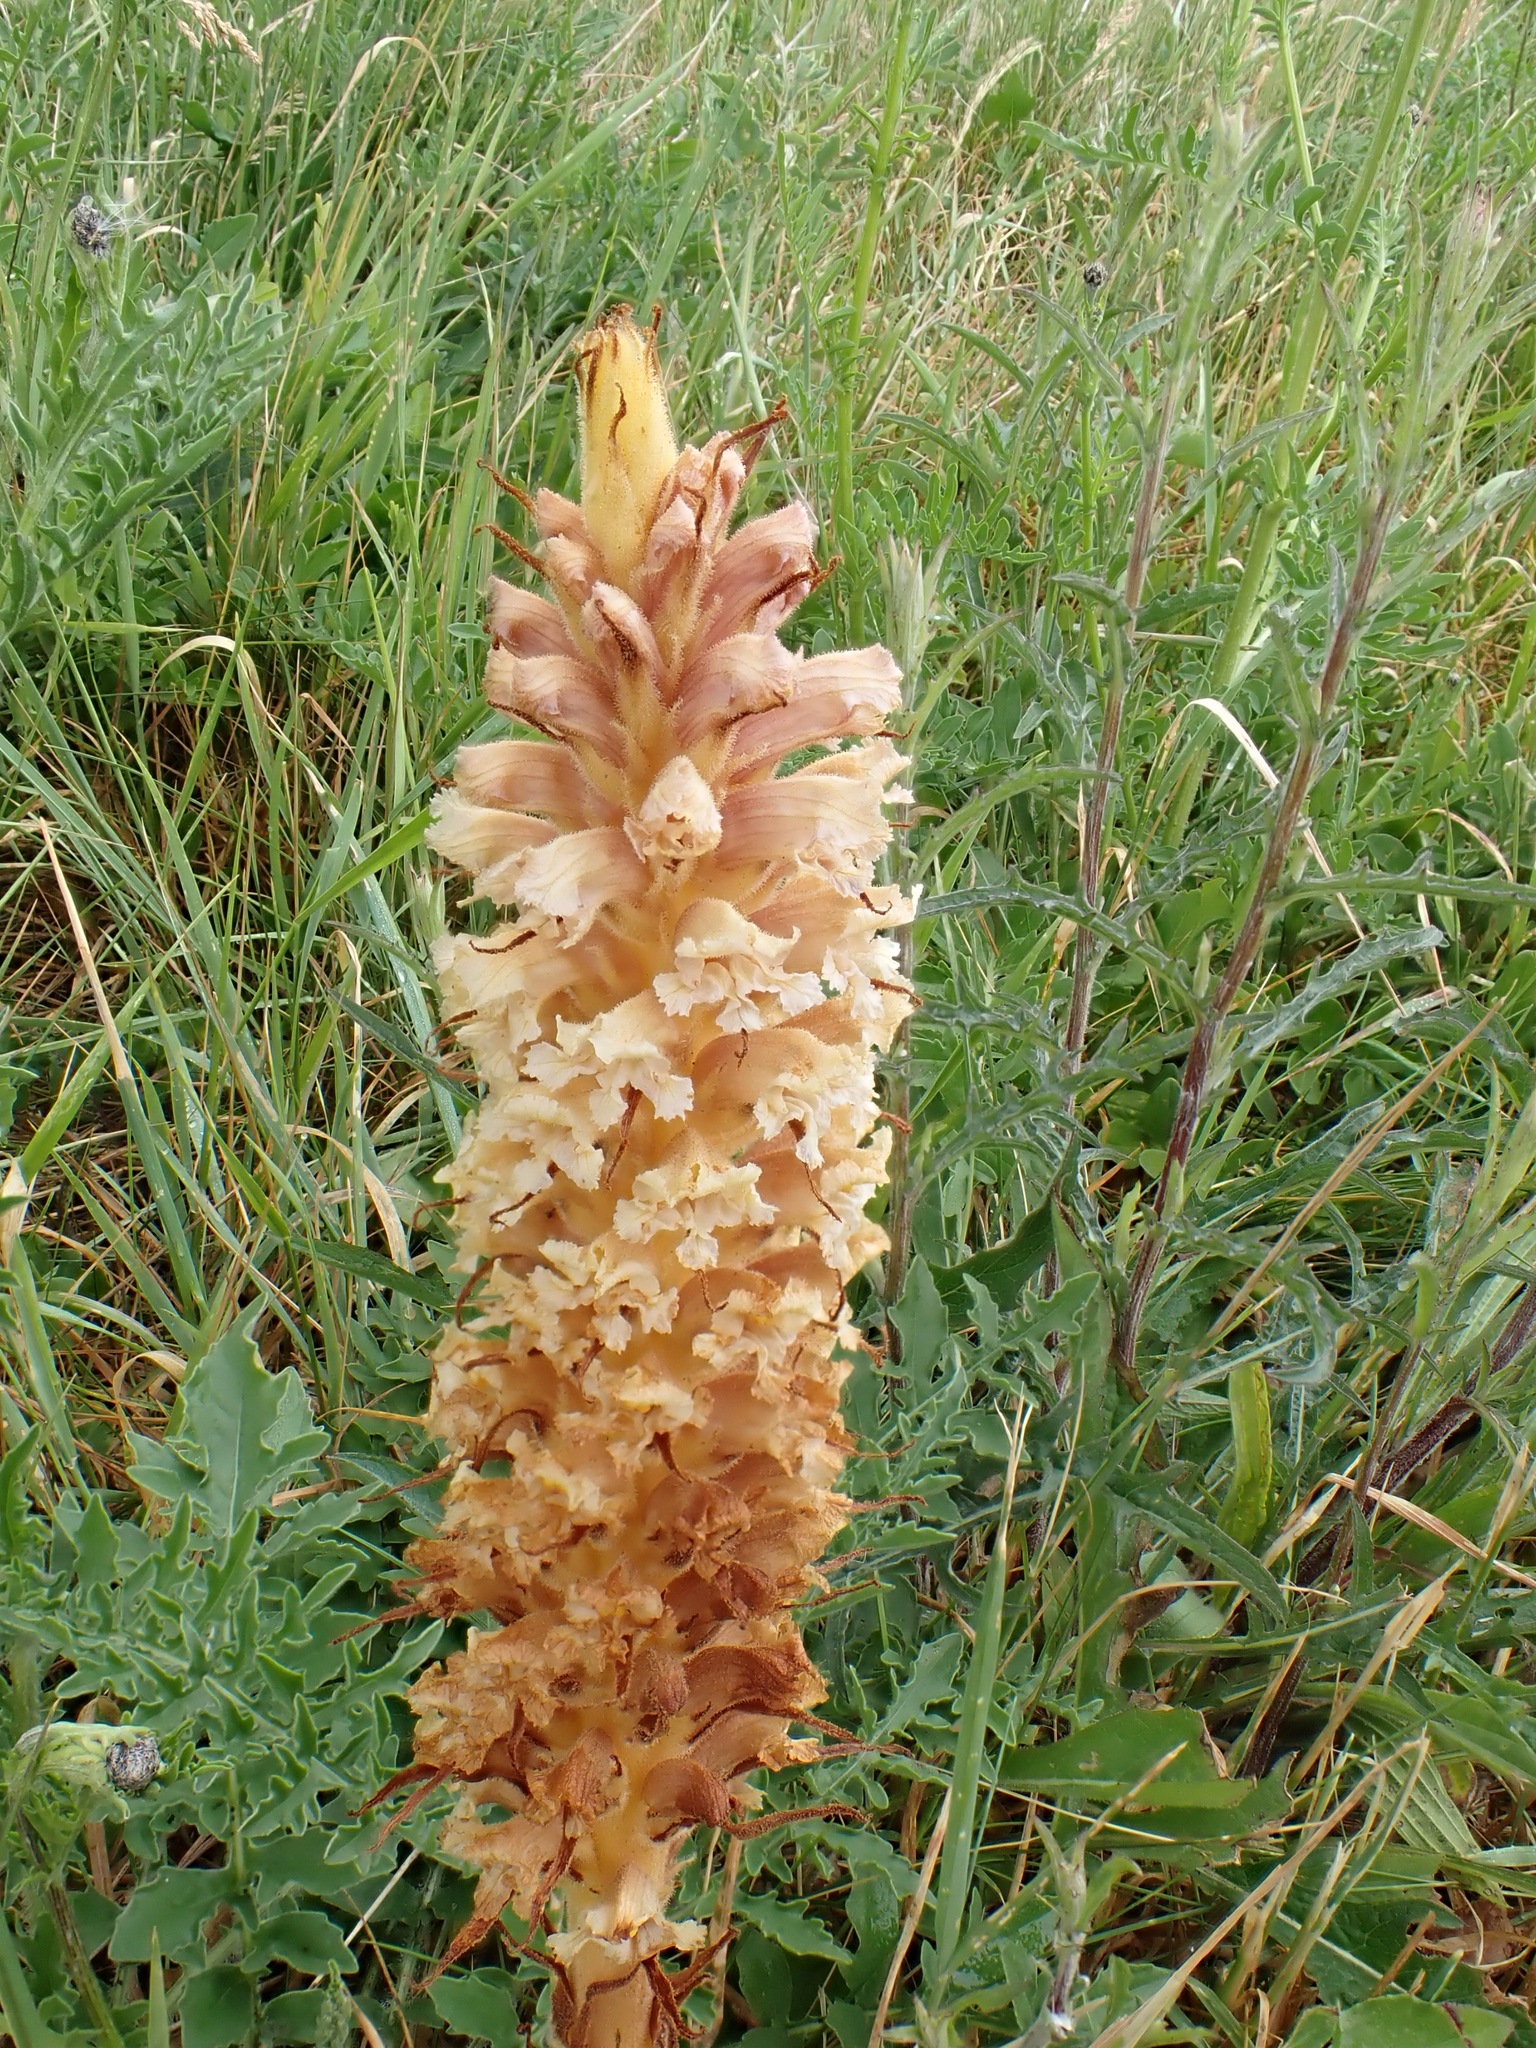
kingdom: Plantae
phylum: Tracheophyta
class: Magnoliopsida
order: Lamiales
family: Orobanchaceae
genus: Orobanche
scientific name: Orobanche elatior
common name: Knapweed broomrape
